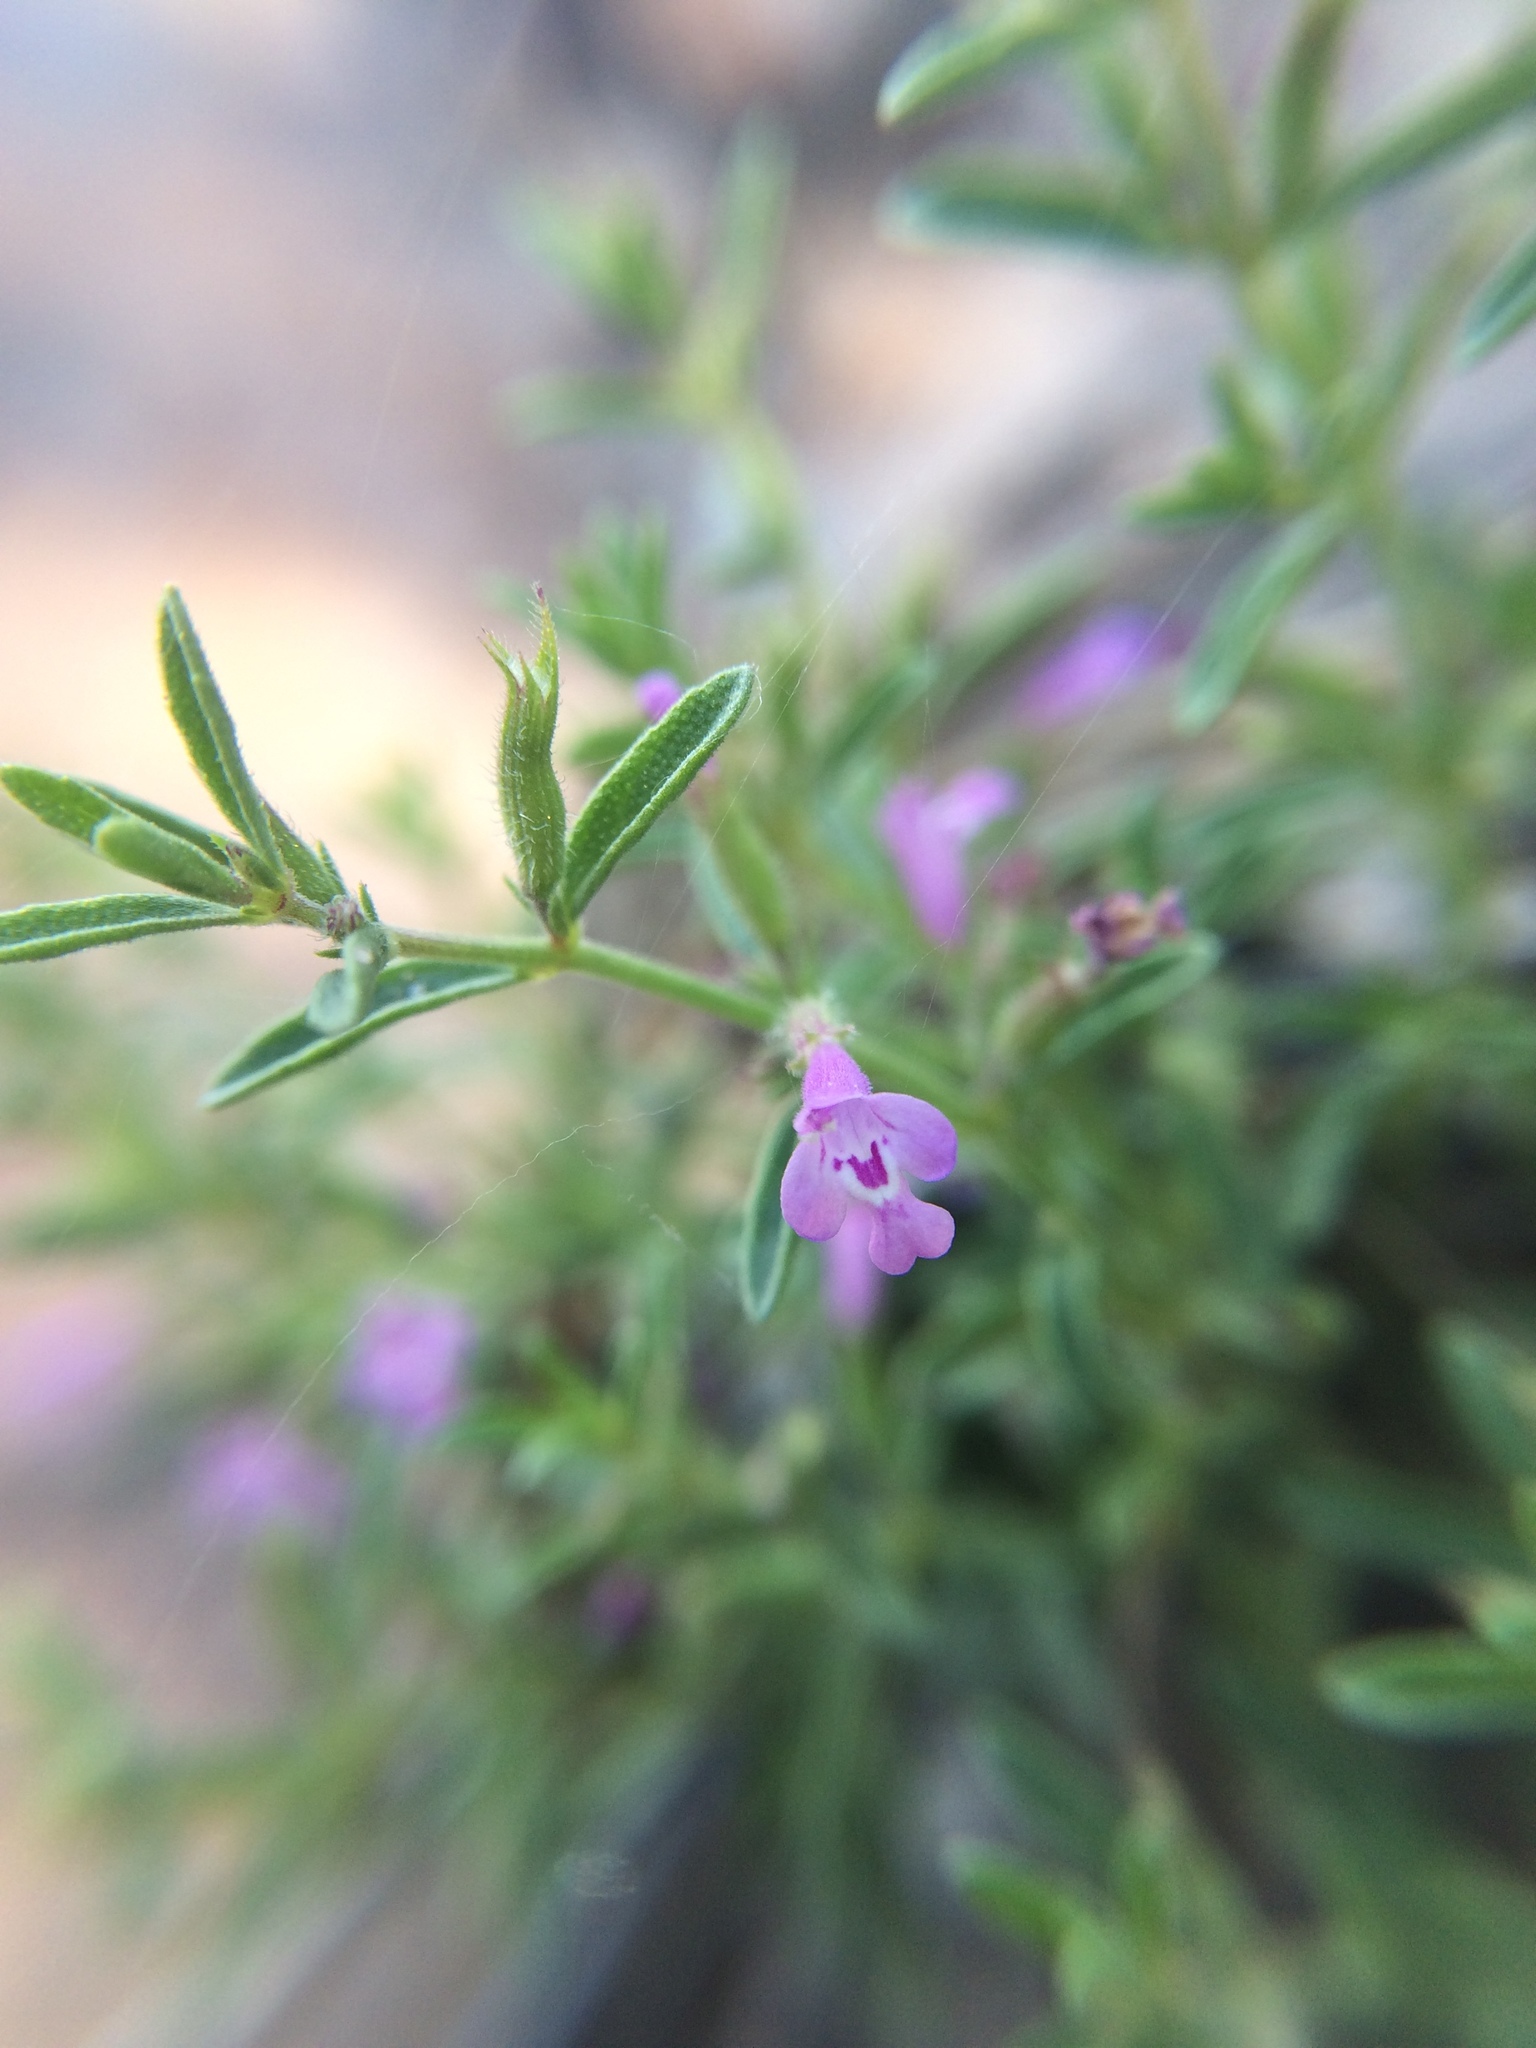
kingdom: Plantae
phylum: Tracheophyta
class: Magnoliopsida
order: Lamiales
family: Lamiaceae
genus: Hedeoma
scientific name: Hedeoma drummondii
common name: New mexico pennyroyal
